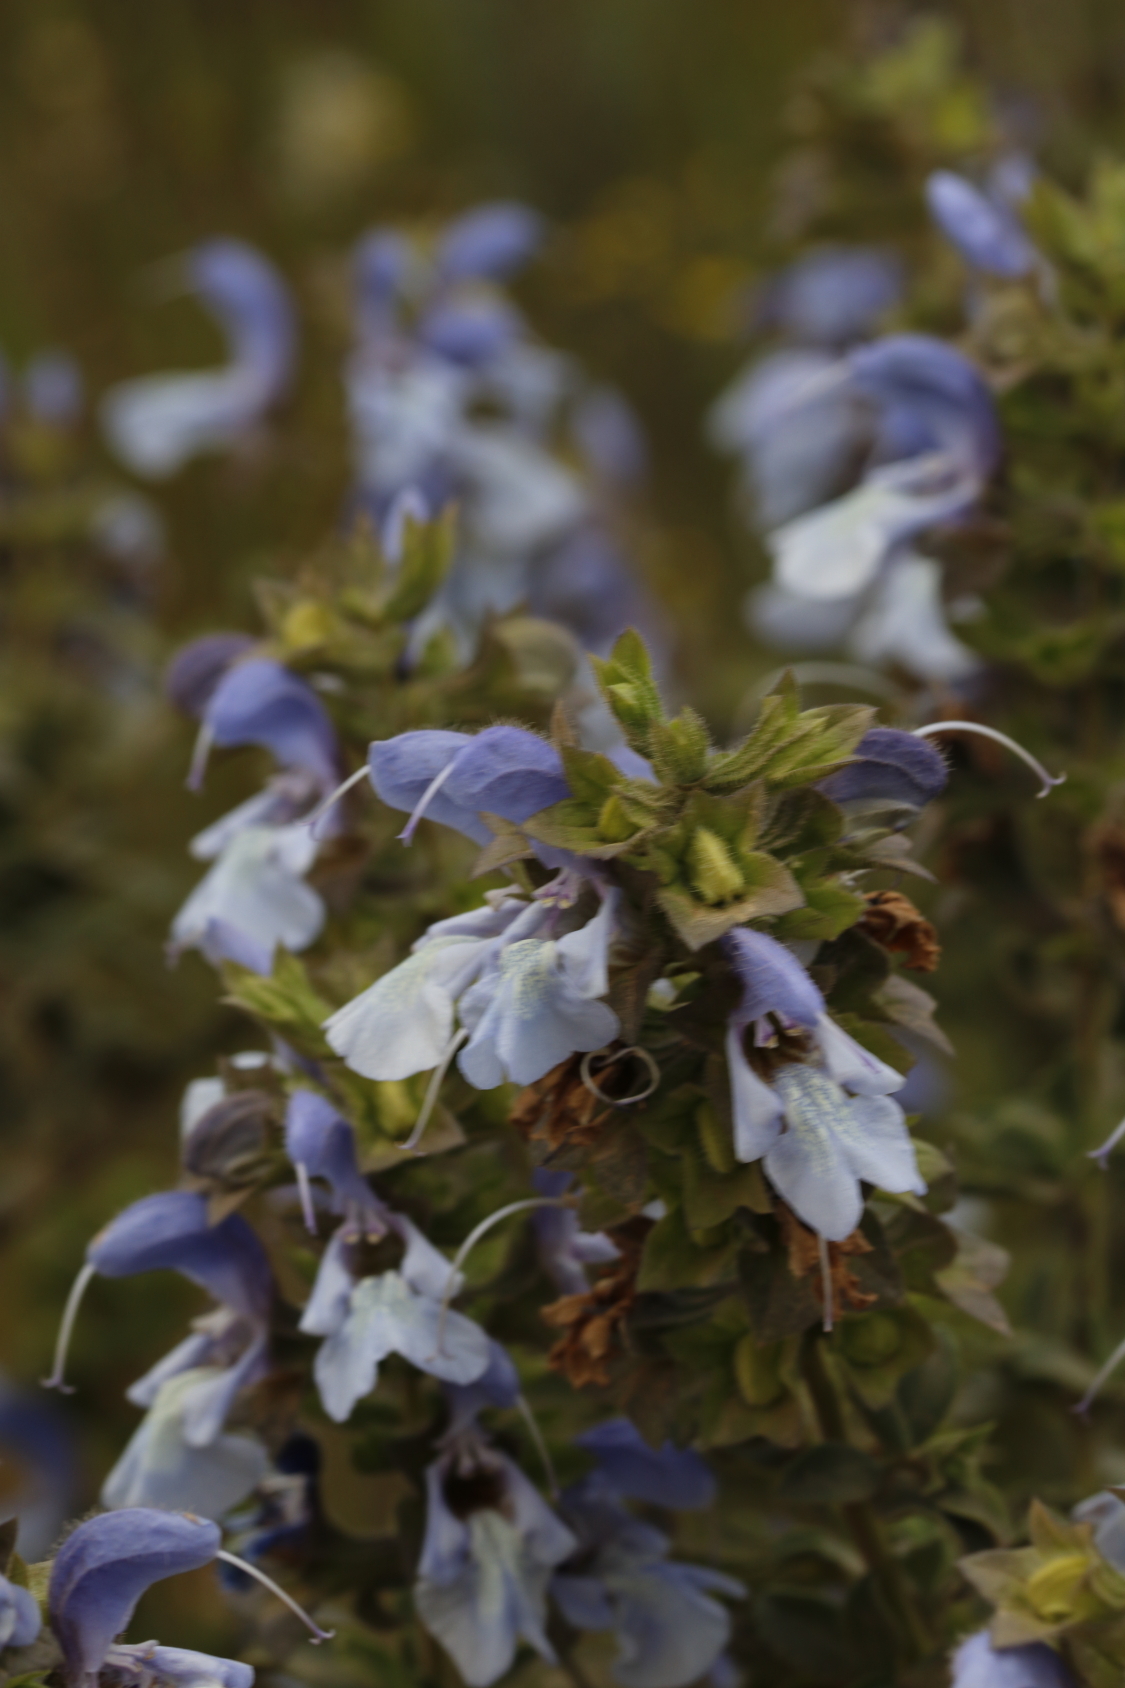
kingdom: Plantae
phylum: Tracheophyta
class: Magnoliopsida
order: Lamiales
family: Lamiaceae
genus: Salvia
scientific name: Salvia africana
